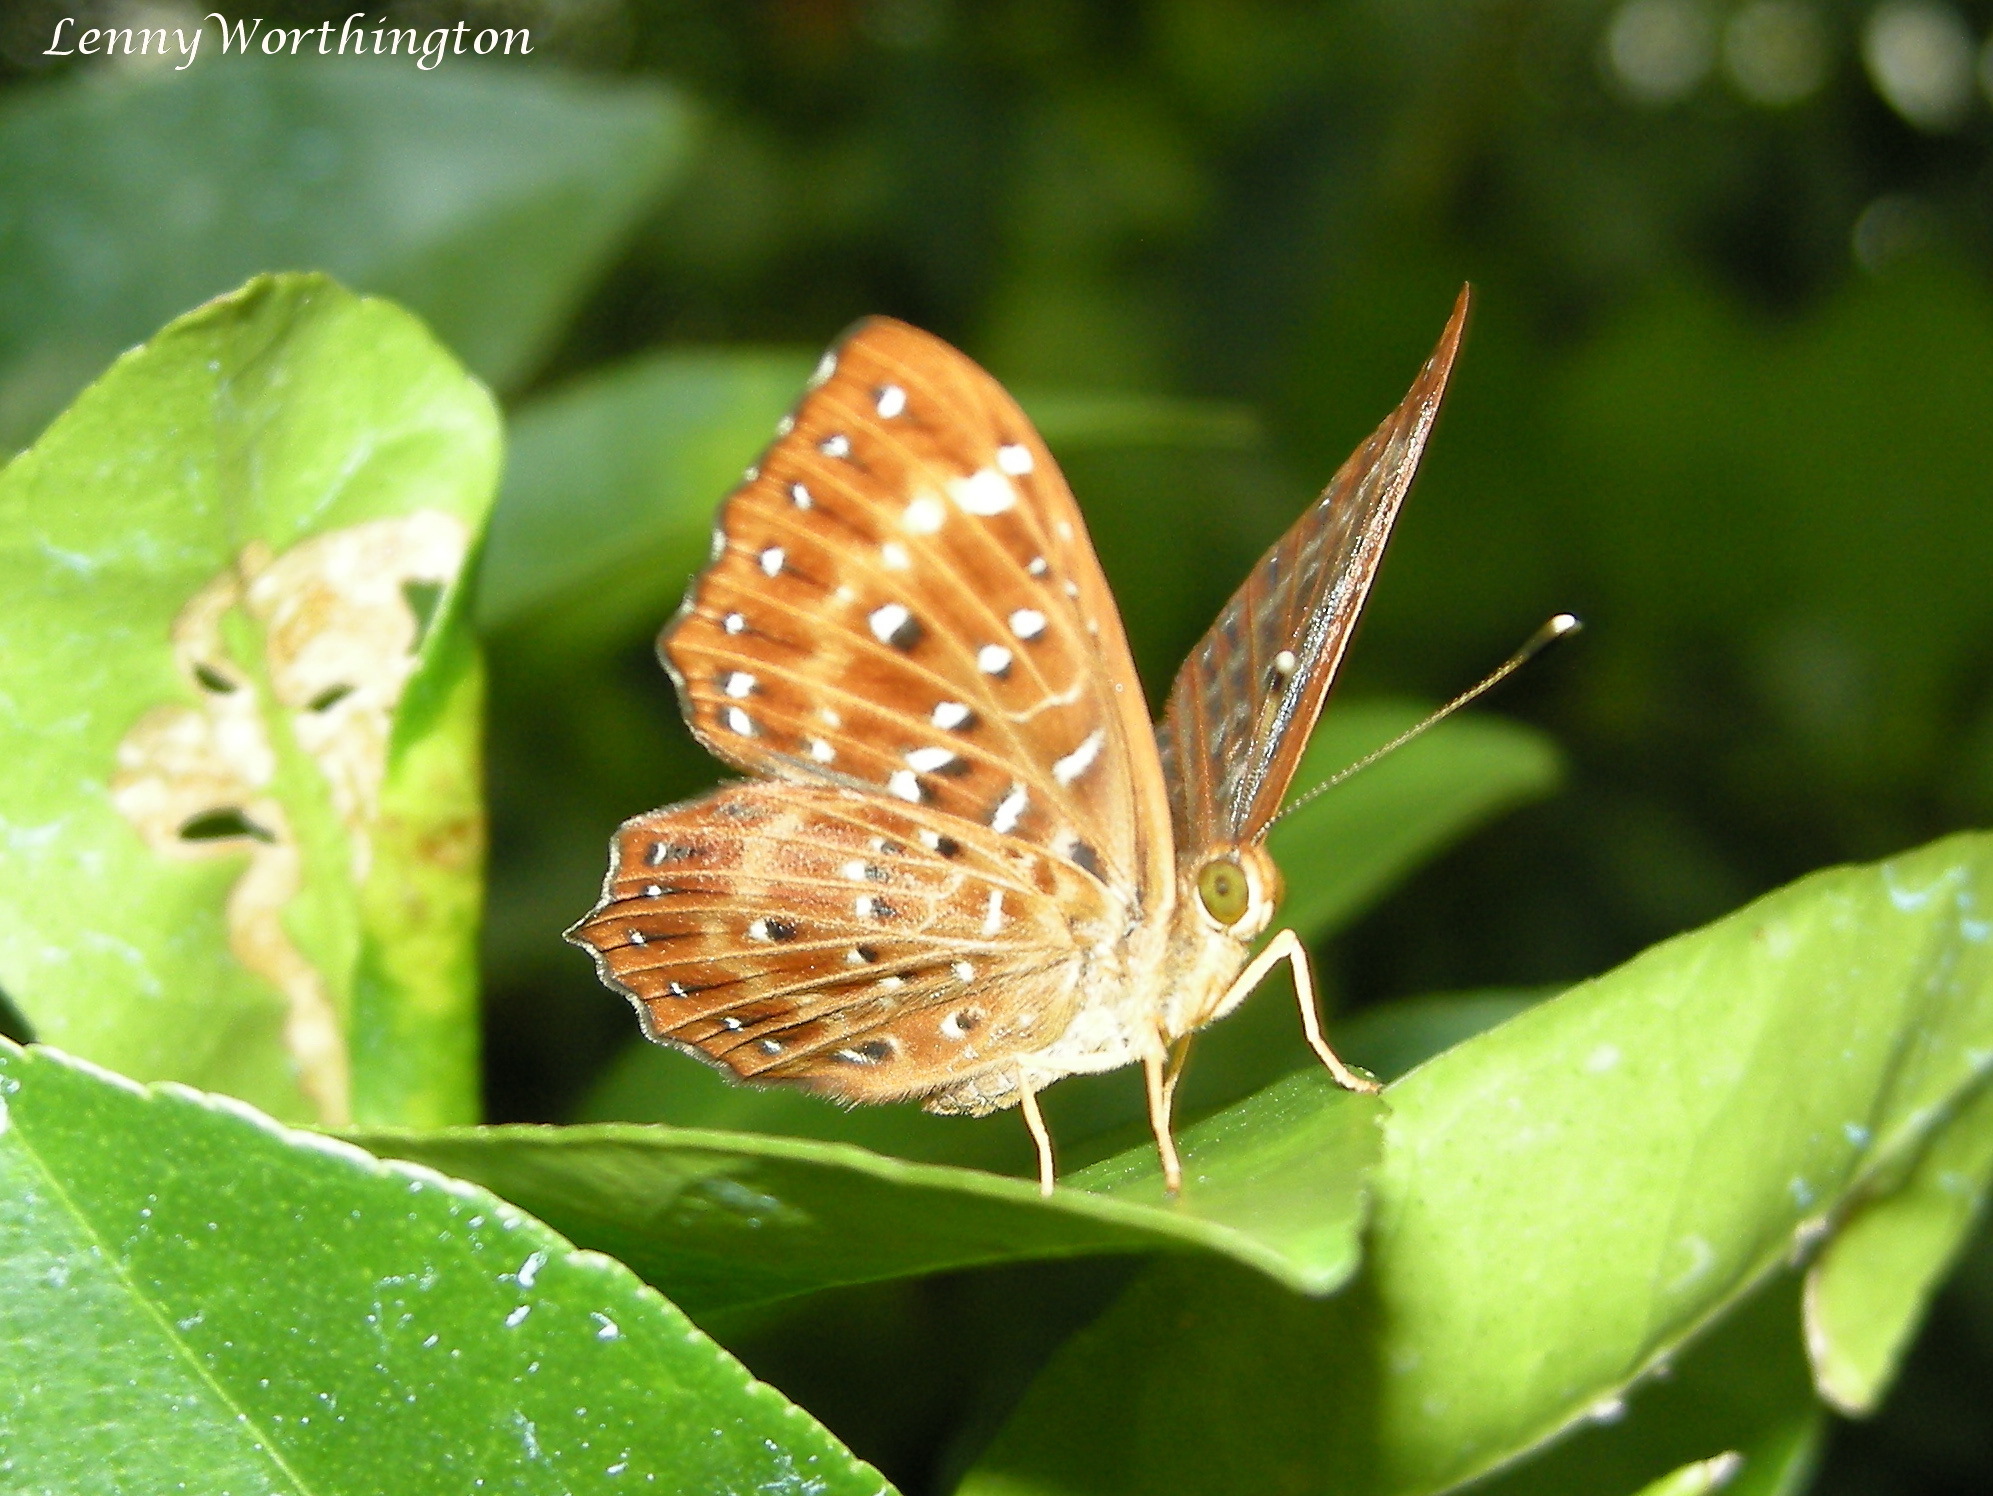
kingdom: Animalia
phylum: Arthropoda
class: Insecta
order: Lepidoptera
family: Riodinidae
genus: Zemeros
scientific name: Zemeros flegyas
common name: Punchinello
